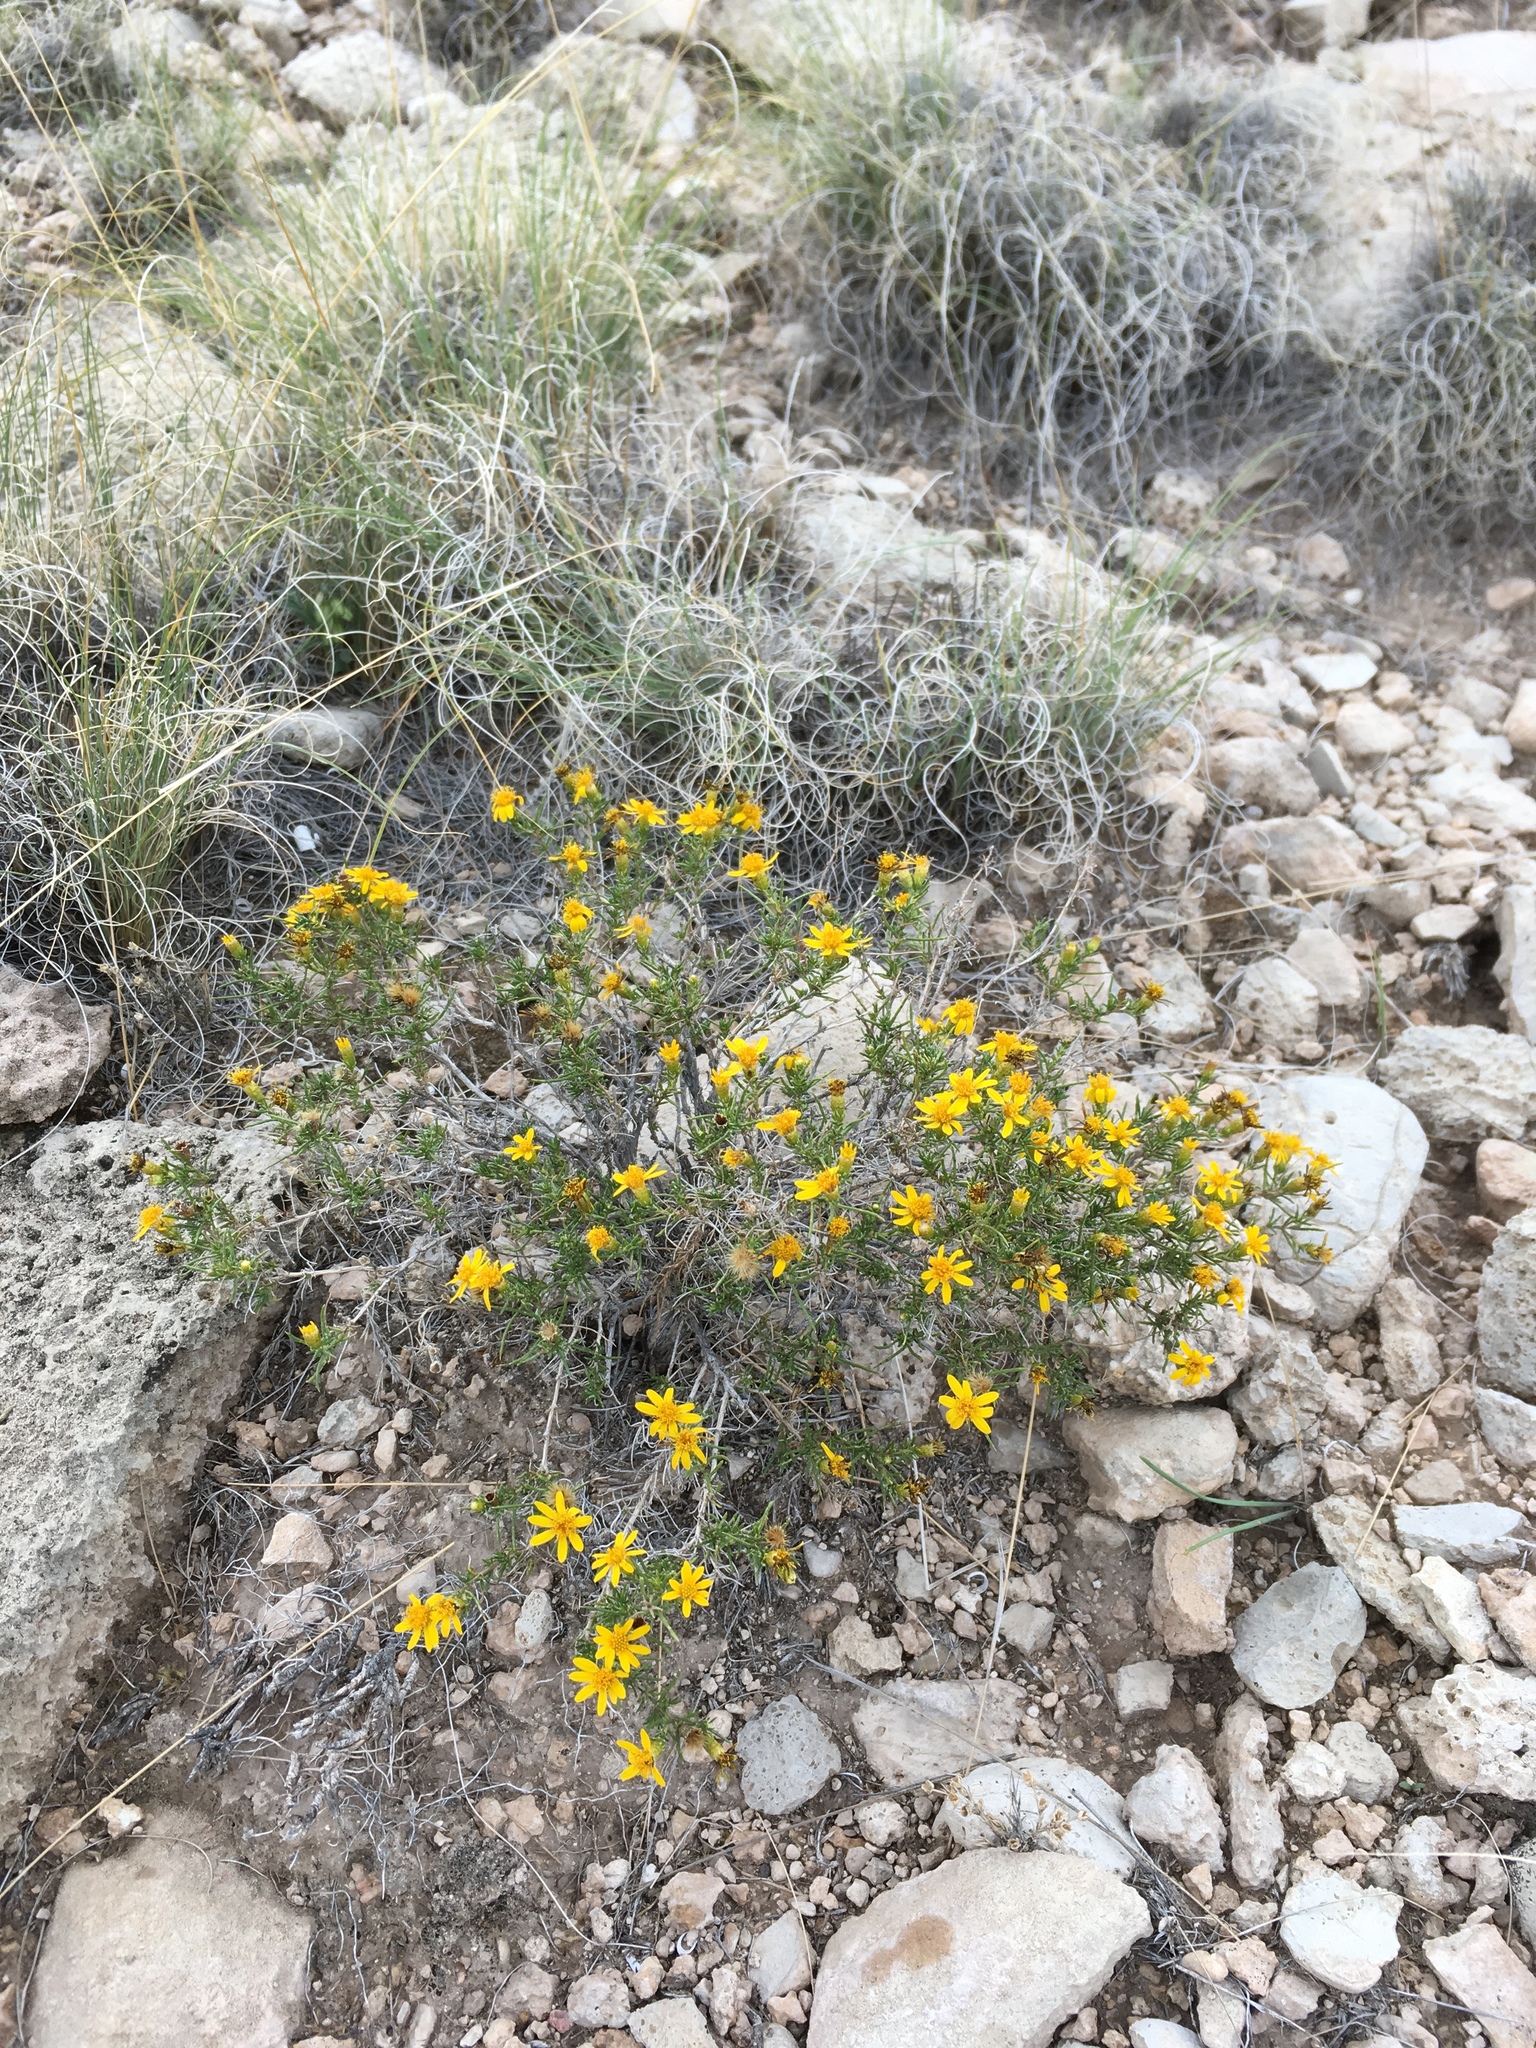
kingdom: Plantae
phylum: Tracheophyta
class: Magnoliopsida
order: Asterales
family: Asteraceae
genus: Thymophylla
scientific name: Thymophylla acerosa
